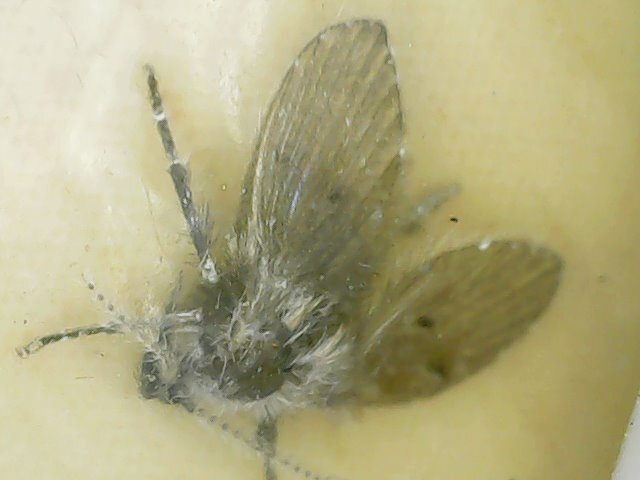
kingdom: Animalia
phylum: Arthropoda
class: Insecta
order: Diptera
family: Psychodidae
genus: Clogmia
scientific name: Clogmia albipunctatus
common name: White-spotted moth fly
